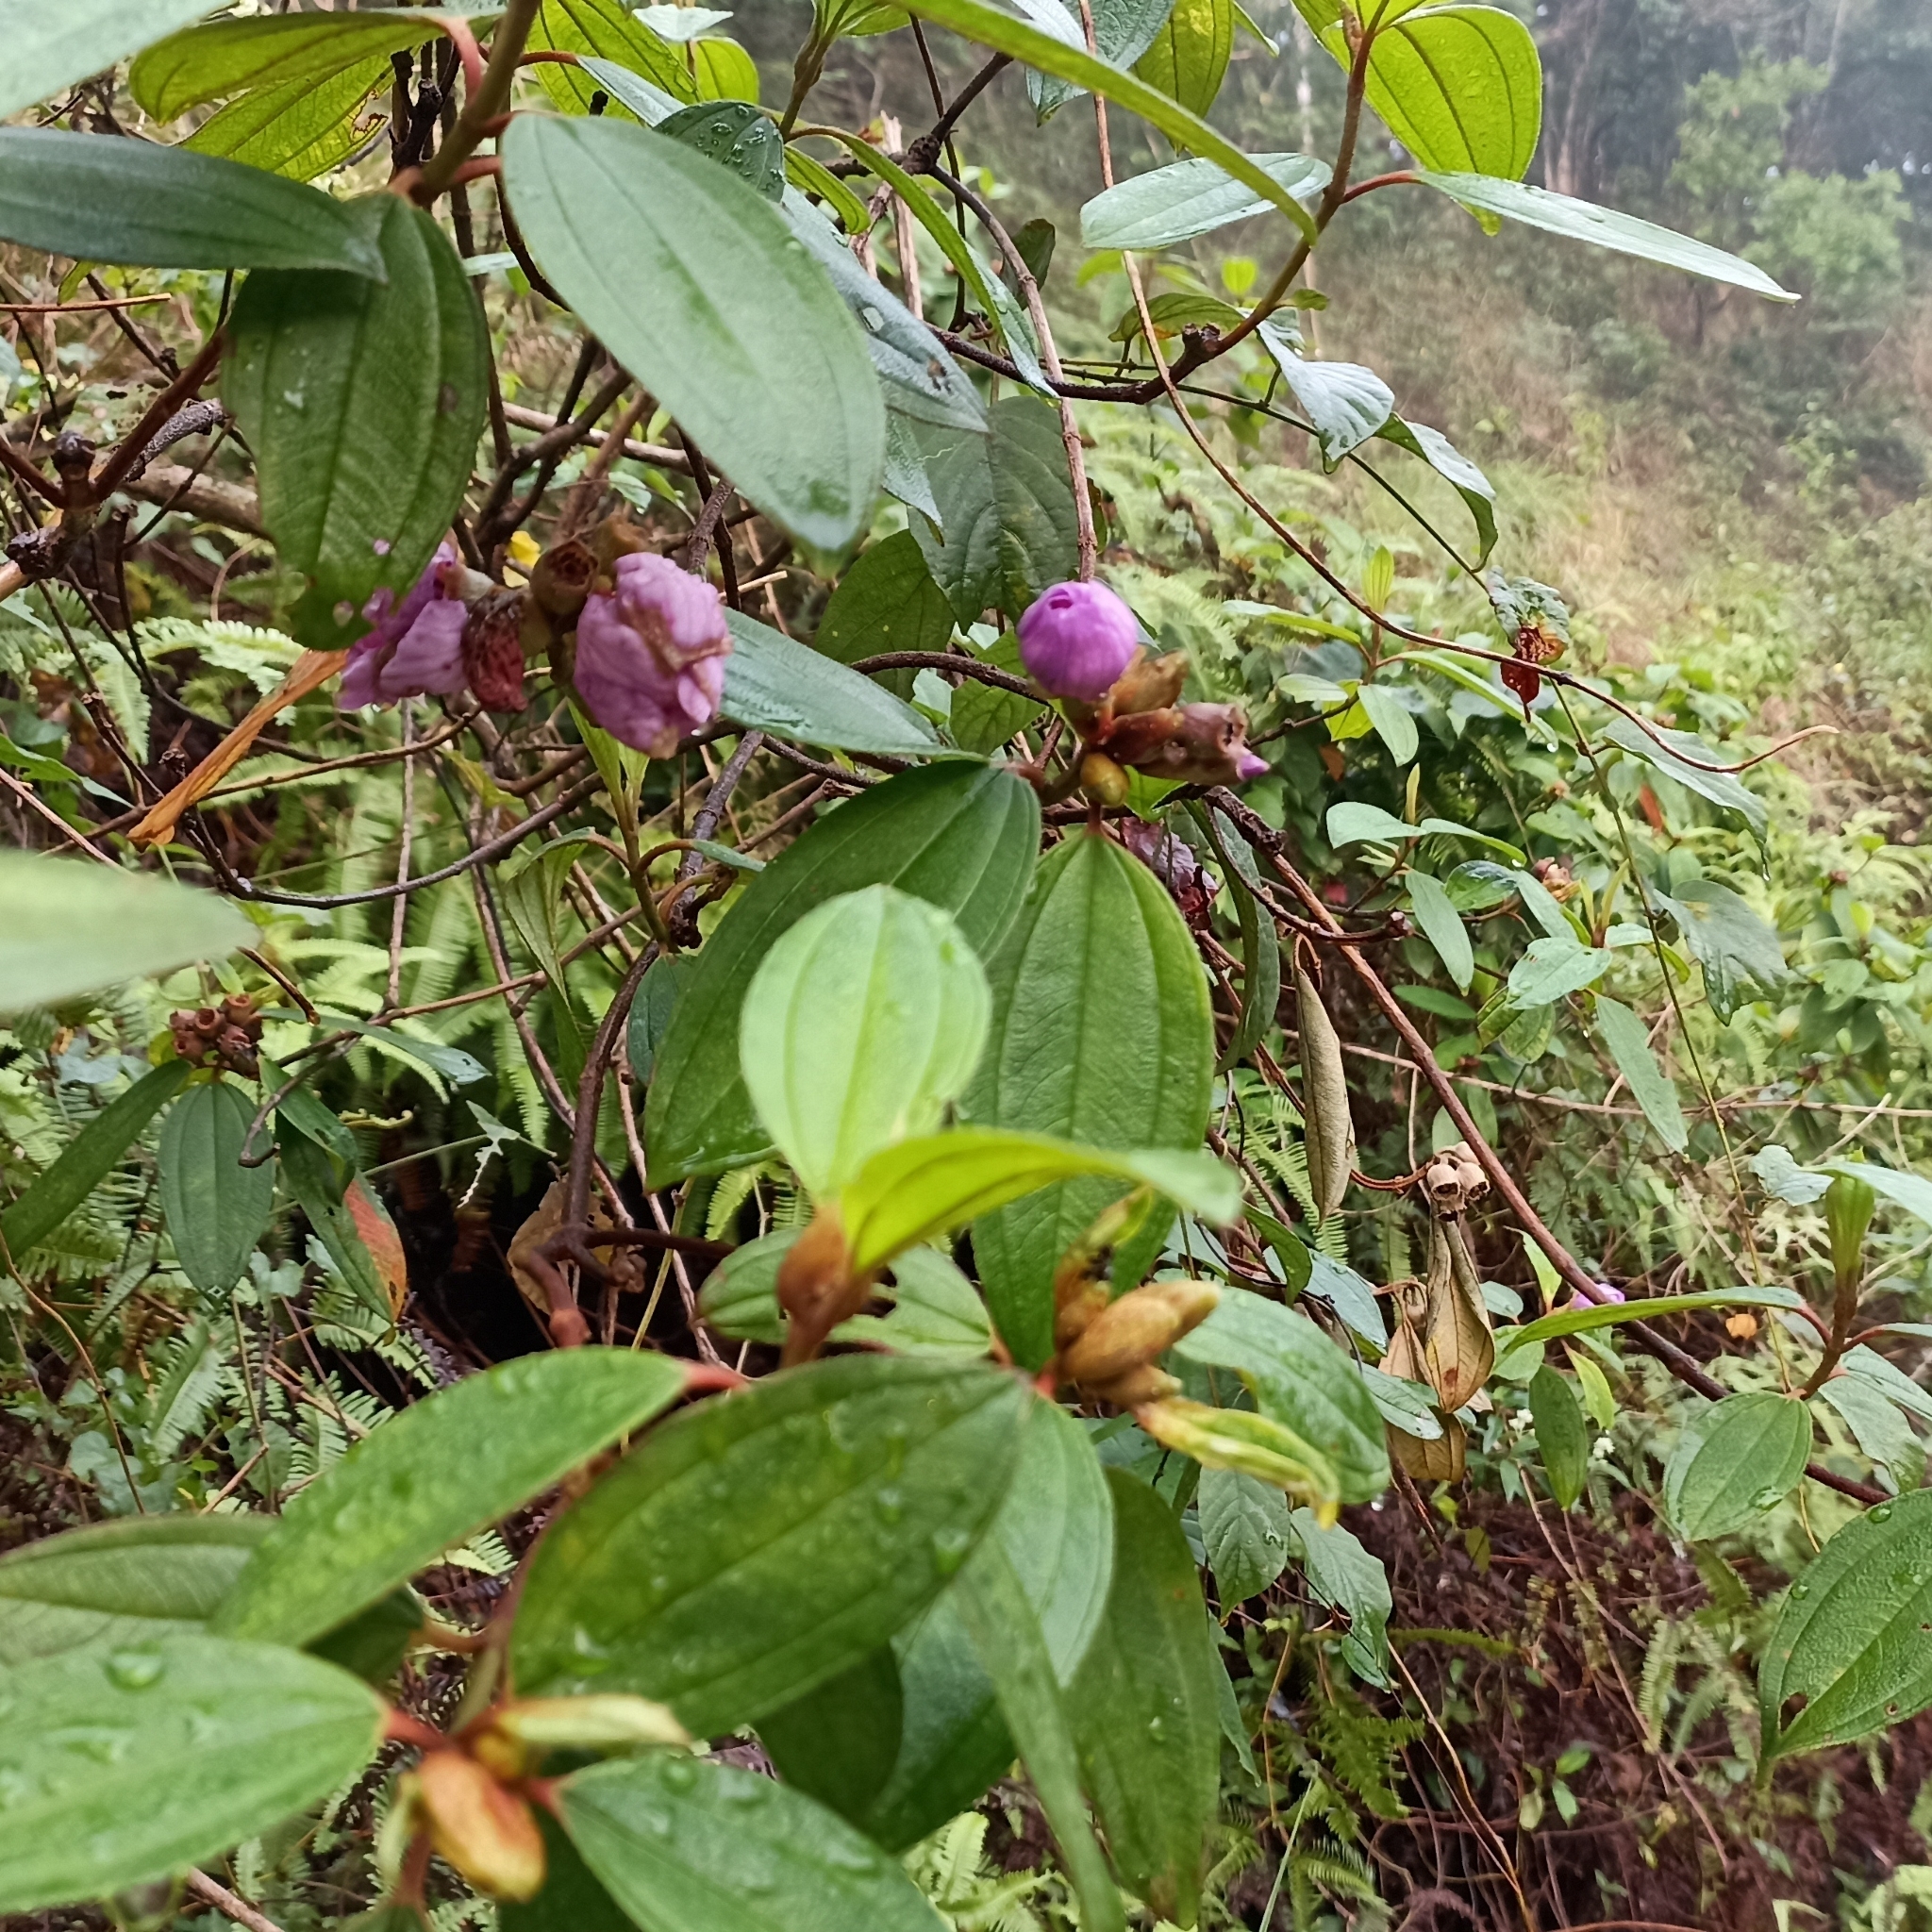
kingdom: Plantae
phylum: Tracheophyta
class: Magnoliopsida
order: Myrtales
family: Melastomataceae
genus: Melastoma
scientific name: Melastoma malabathricum
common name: Indian-rhododendron
